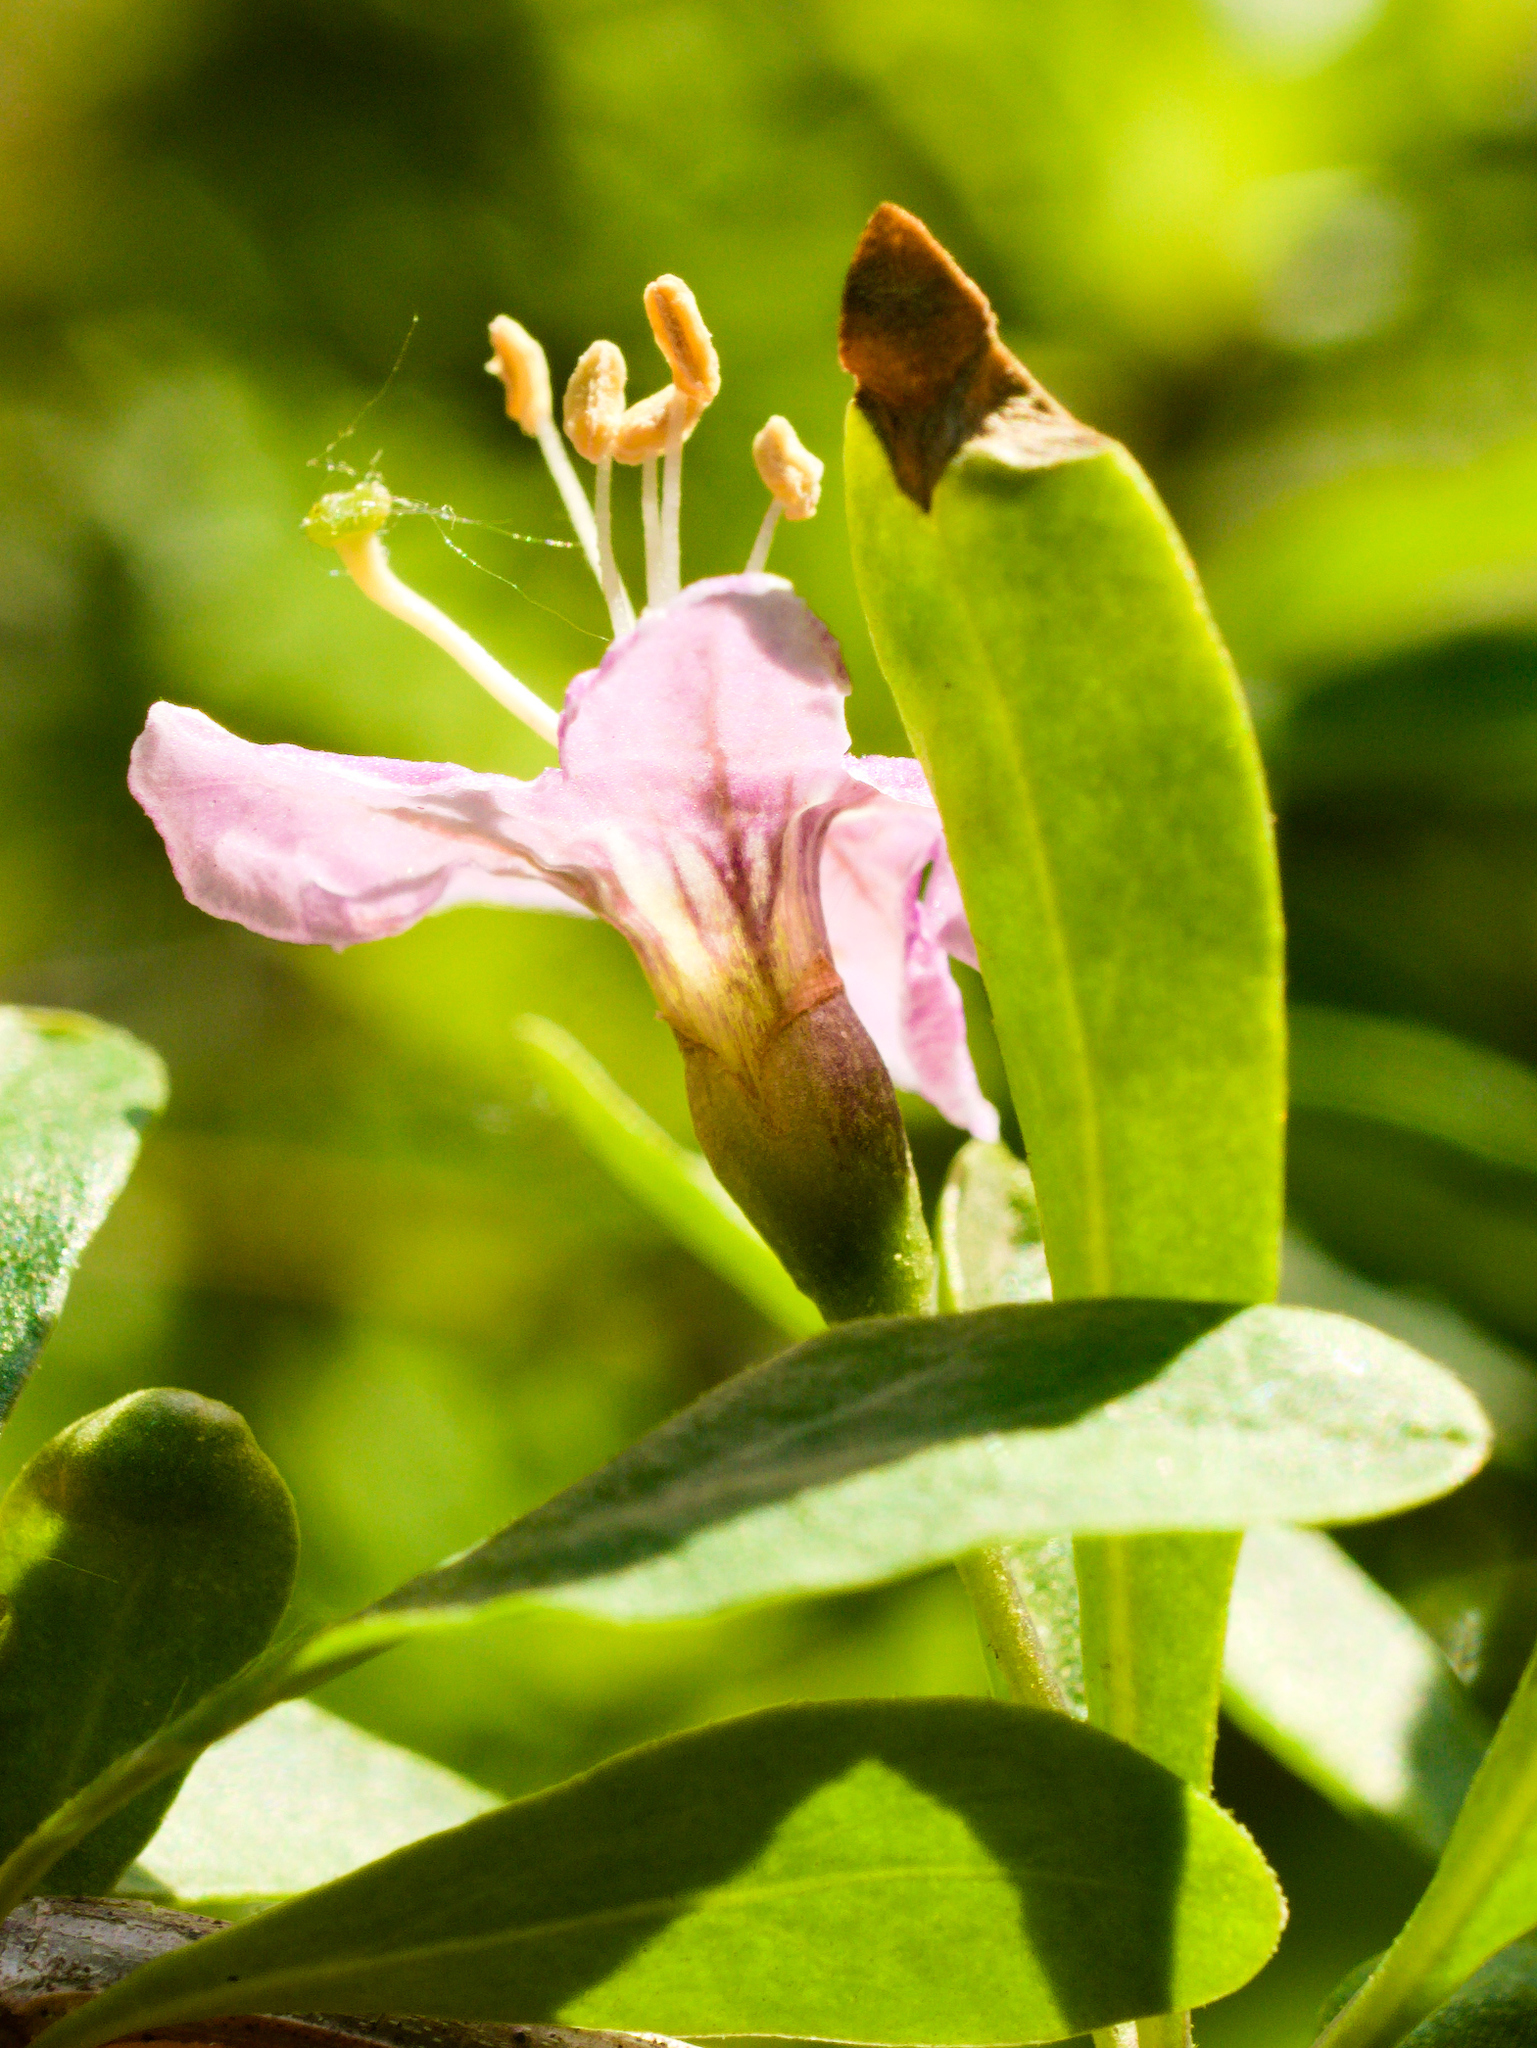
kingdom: Plantae
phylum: Tracheophyta
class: Magnoliopsida
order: Solanales
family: Solanaceae
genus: Lycium
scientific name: Lycium barbarum
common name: Duke of argyll's teaplant
